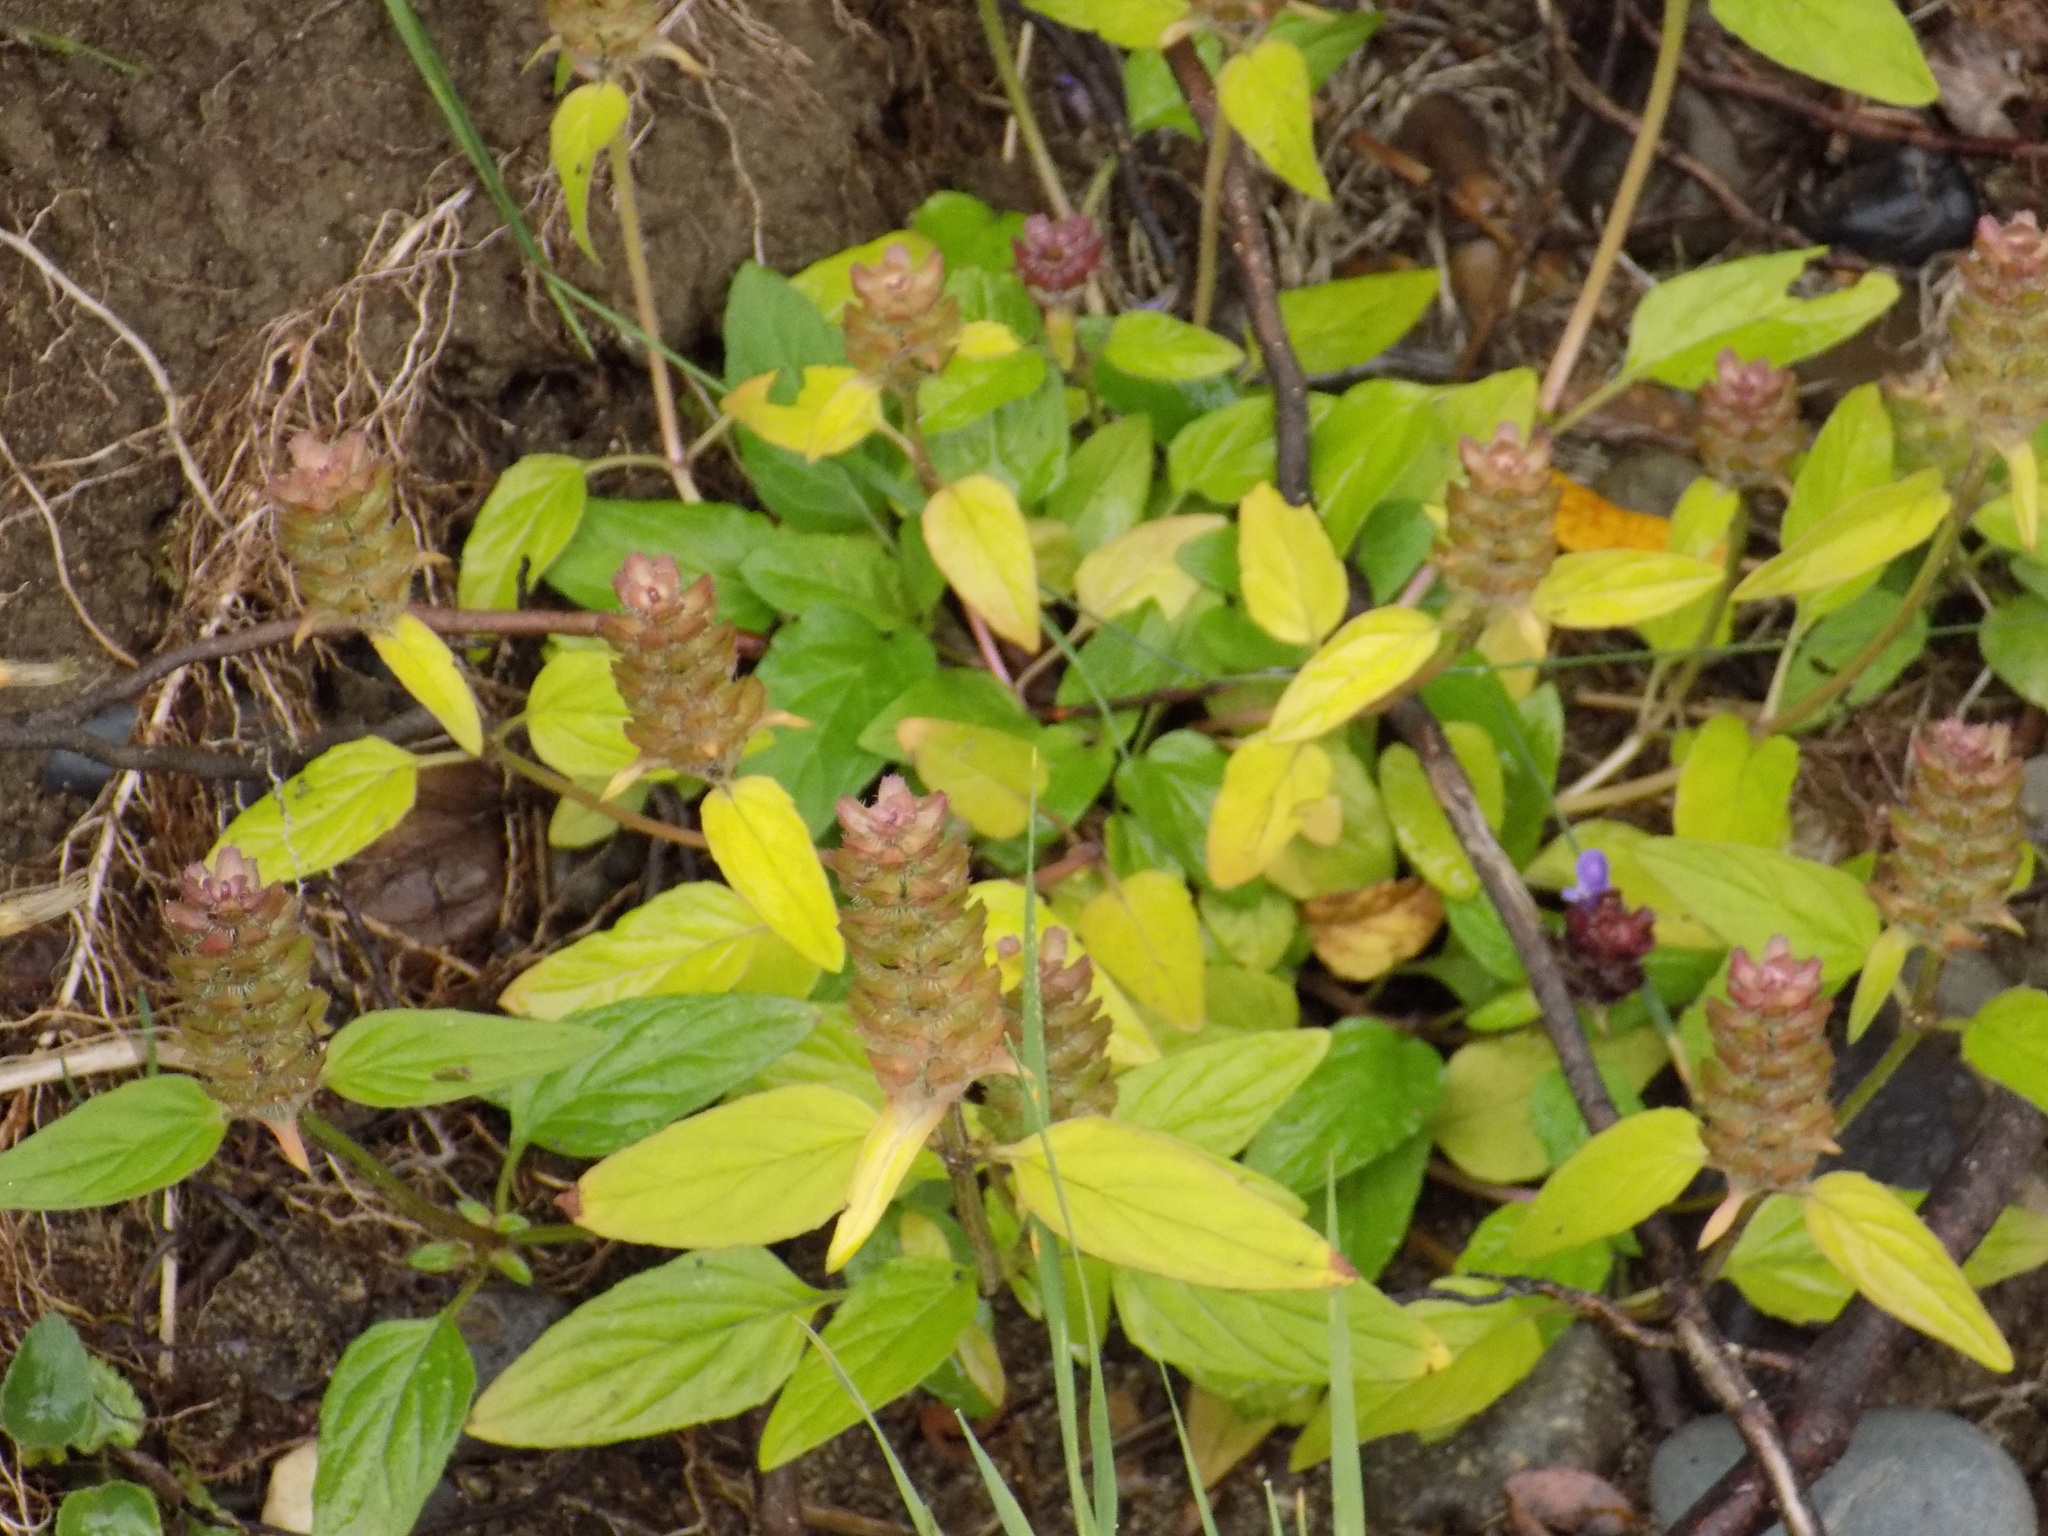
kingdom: Plantae
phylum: Tracheophyta
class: Magnoliopsida
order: Lamiales
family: Lamiaceae
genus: Prunella
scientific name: Prunella vulgaris
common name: Heal-all
